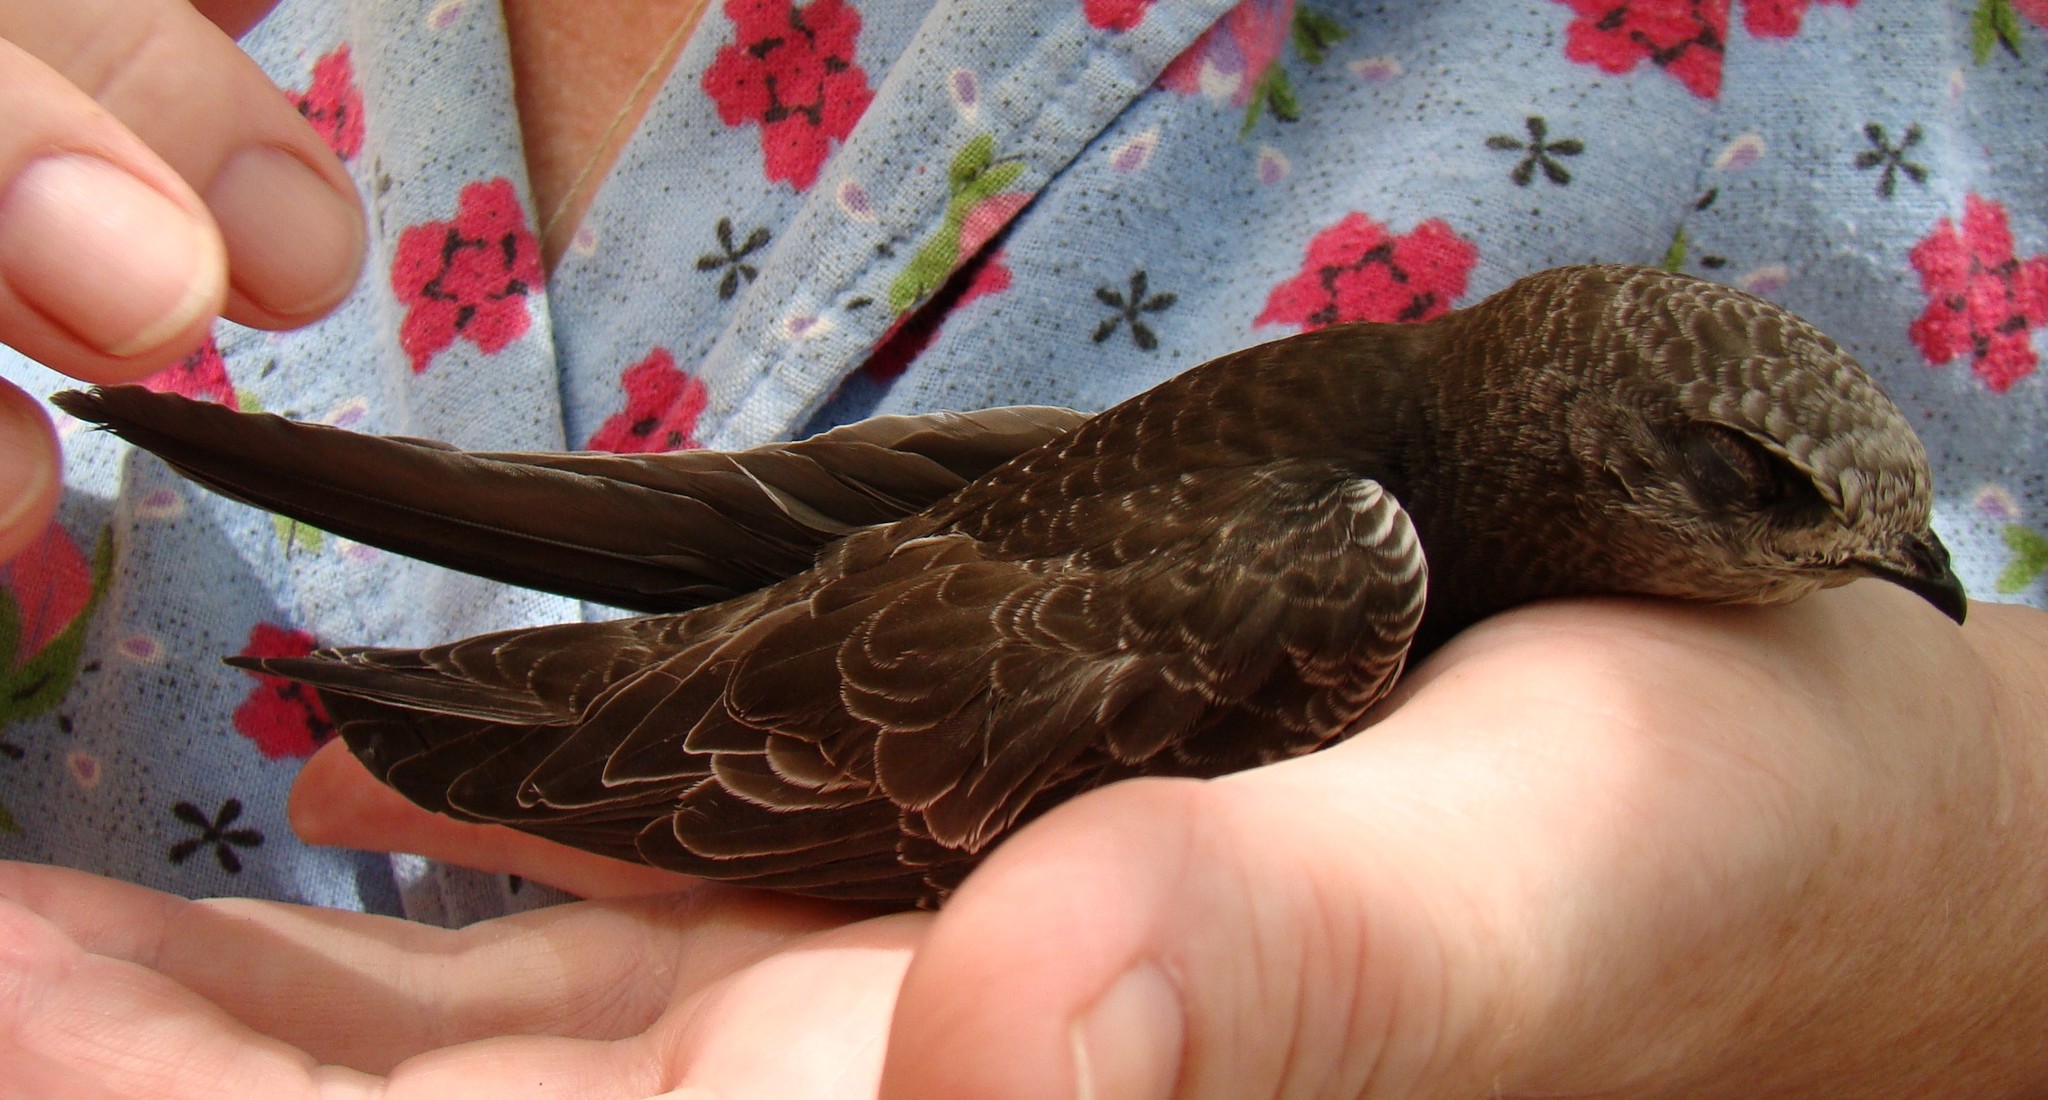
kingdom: Animalia
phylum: Chordata
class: Aves
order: Apodiformes
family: Apodidae
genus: Apus
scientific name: Apus apus
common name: Common swift
